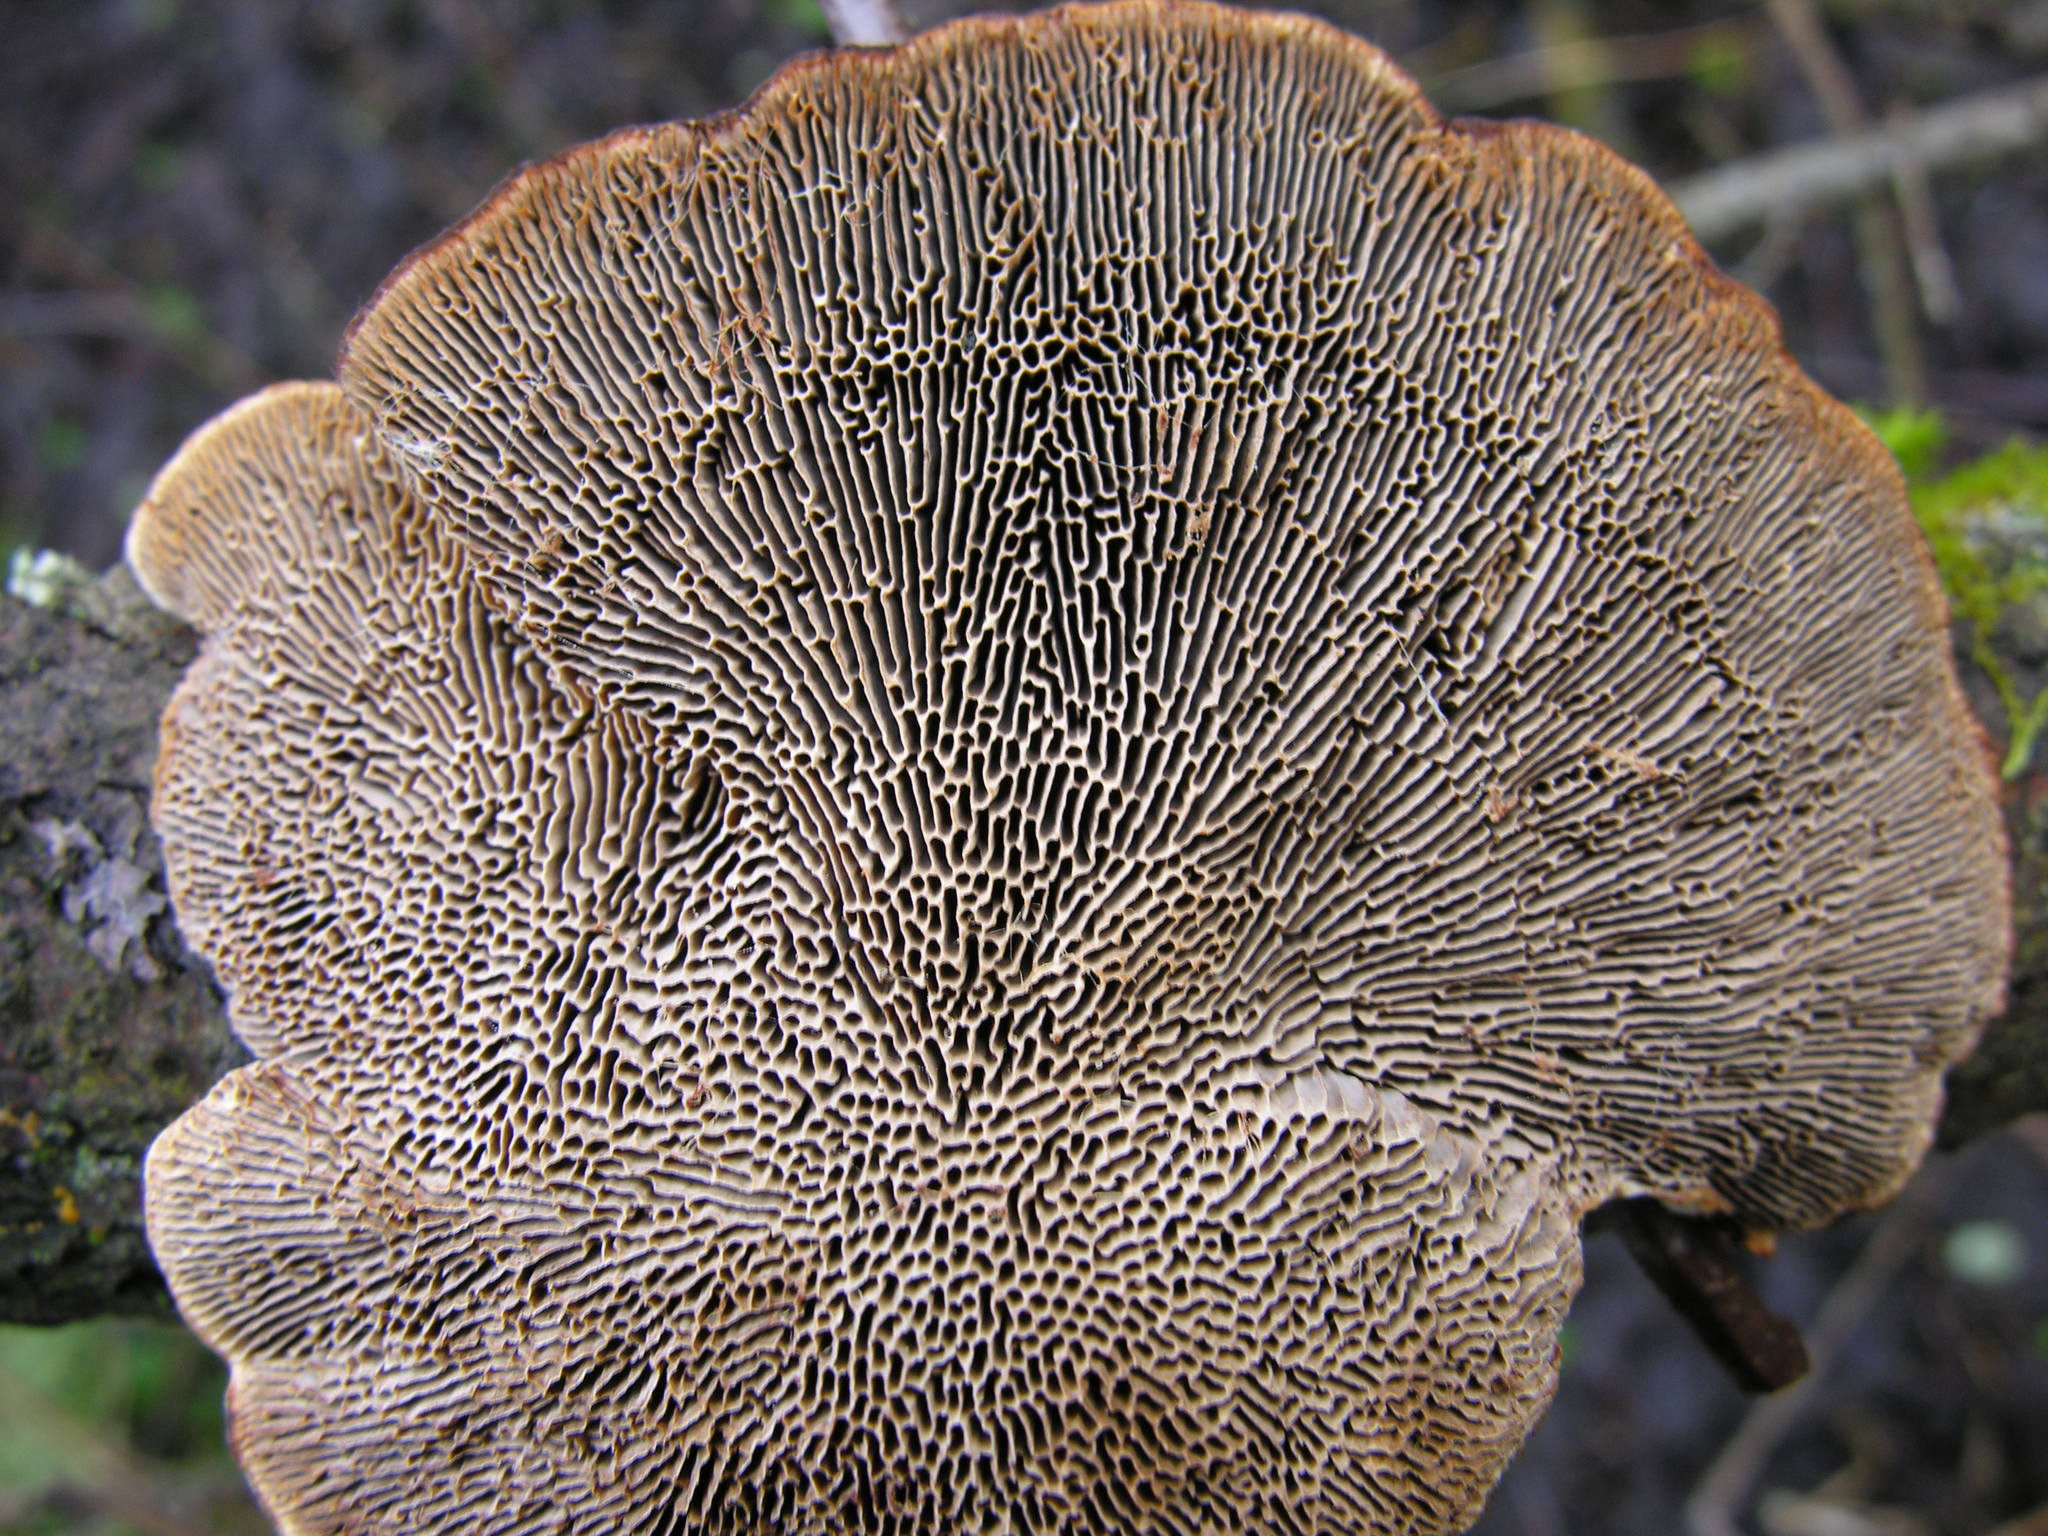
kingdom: Fungi
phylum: Basidiomycota
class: Agaricomycetes
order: Polyporales
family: Polyporaceae
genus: Daedaleopsis
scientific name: Daedaleopsis tricolor
